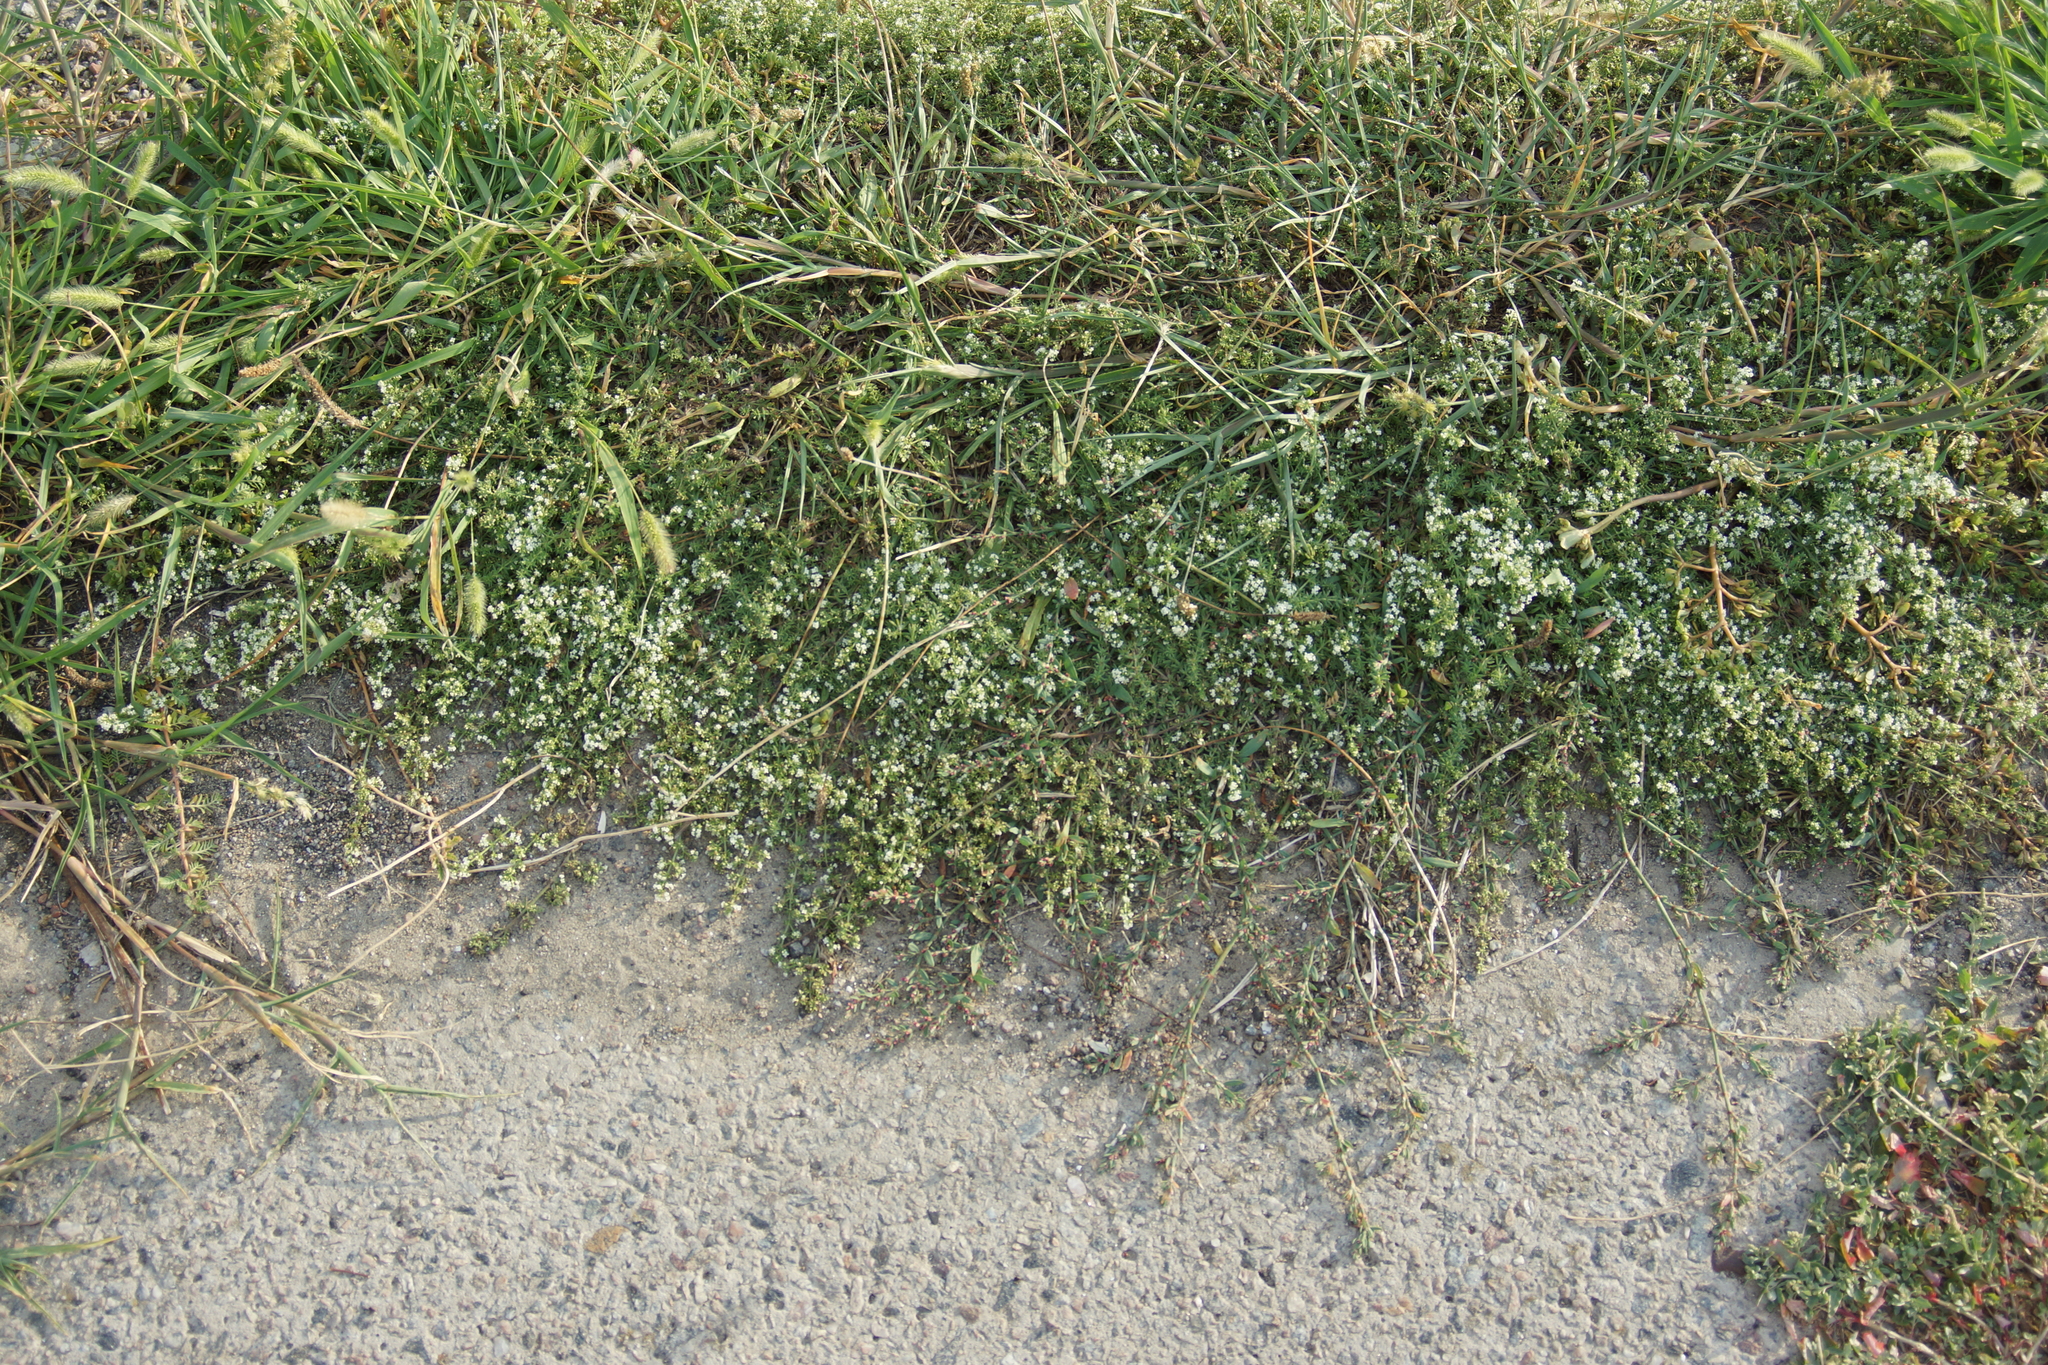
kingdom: Plantae
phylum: Tracheophyta
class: Magnoliopsida
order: Gentianales
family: Rubiaceae
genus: Galium
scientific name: Galium humifusum
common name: Spreading bedstraw
